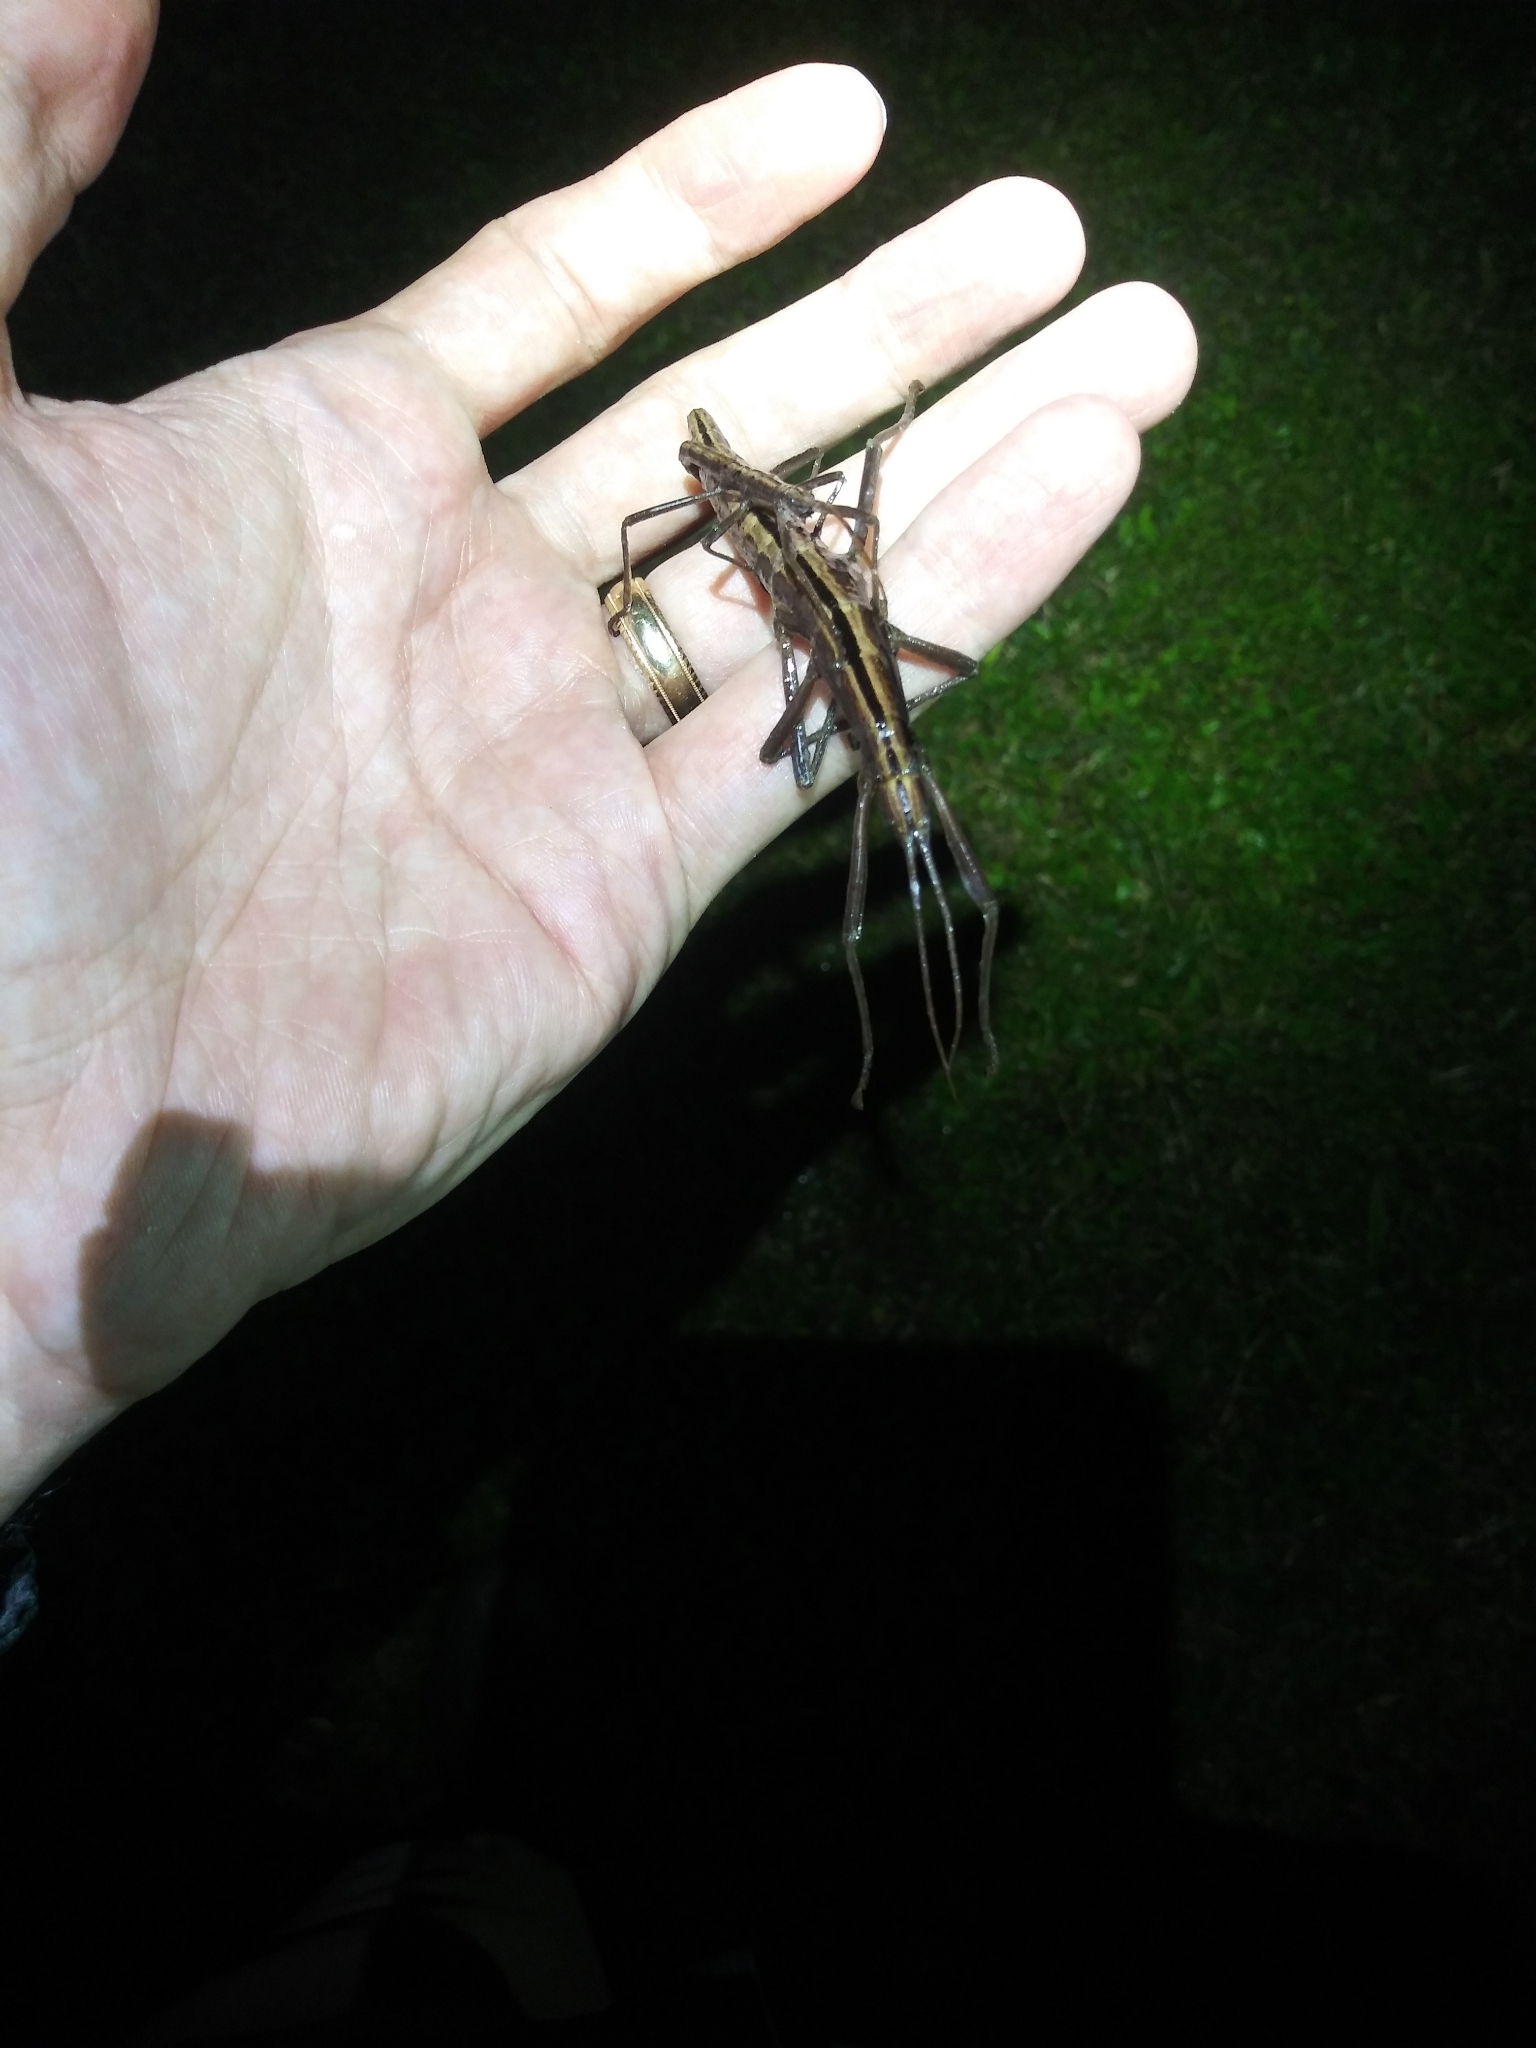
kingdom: Animalia
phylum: Arthropoda
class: Insecta
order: Phasmida
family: Pseudophasmatidae
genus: Anisomorpha
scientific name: Anisomorpha buprestoides
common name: Florida stick insect
